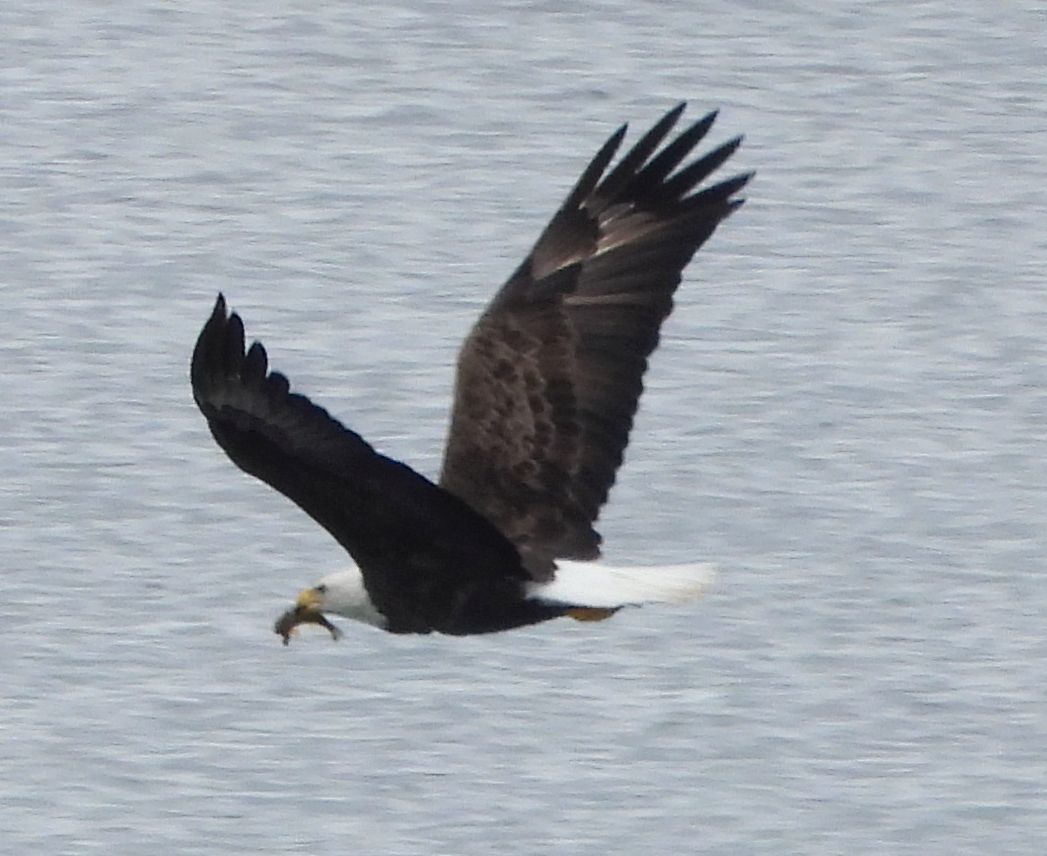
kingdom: Animalia
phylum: Chordata
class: Aves
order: Accipitriformes
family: Accipitridae
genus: Haliaeetus
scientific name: Haliaeetus leucocephalus
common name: Bald eagle
